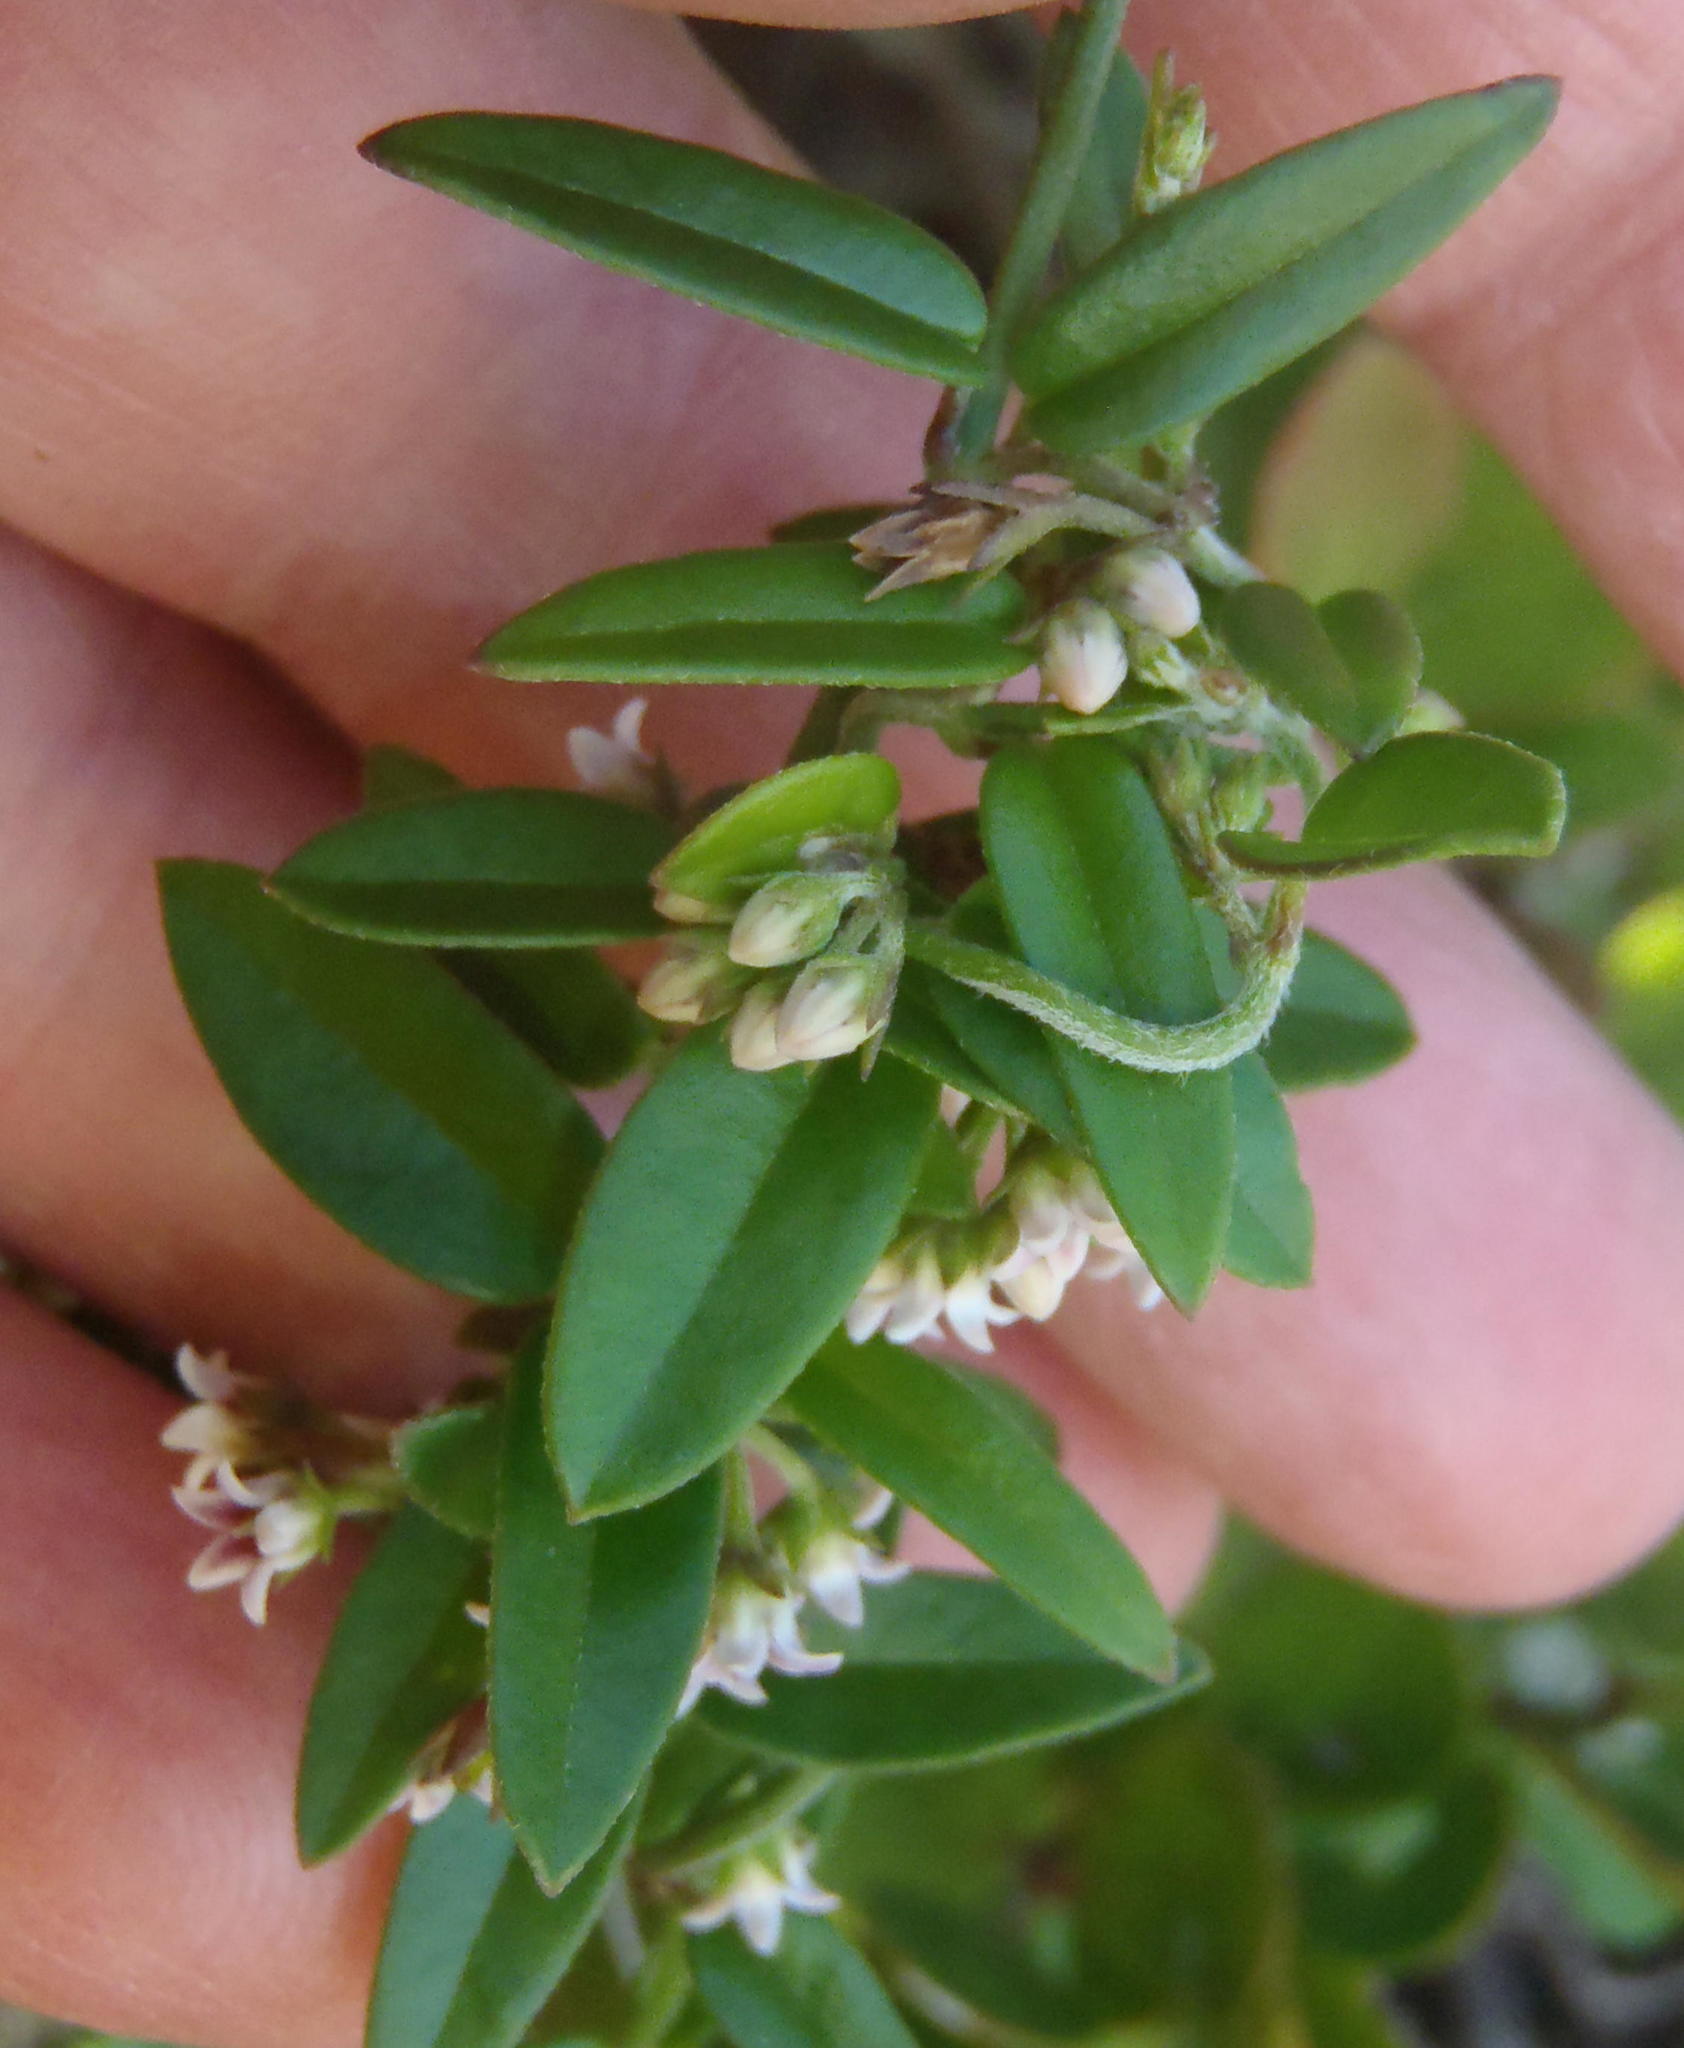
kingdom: Plantae
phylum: Tracheophyta
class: Magnoliopsida
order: Gentianales
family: Apocynaceae
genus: Astephanus
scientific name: Astephanus triflorus
